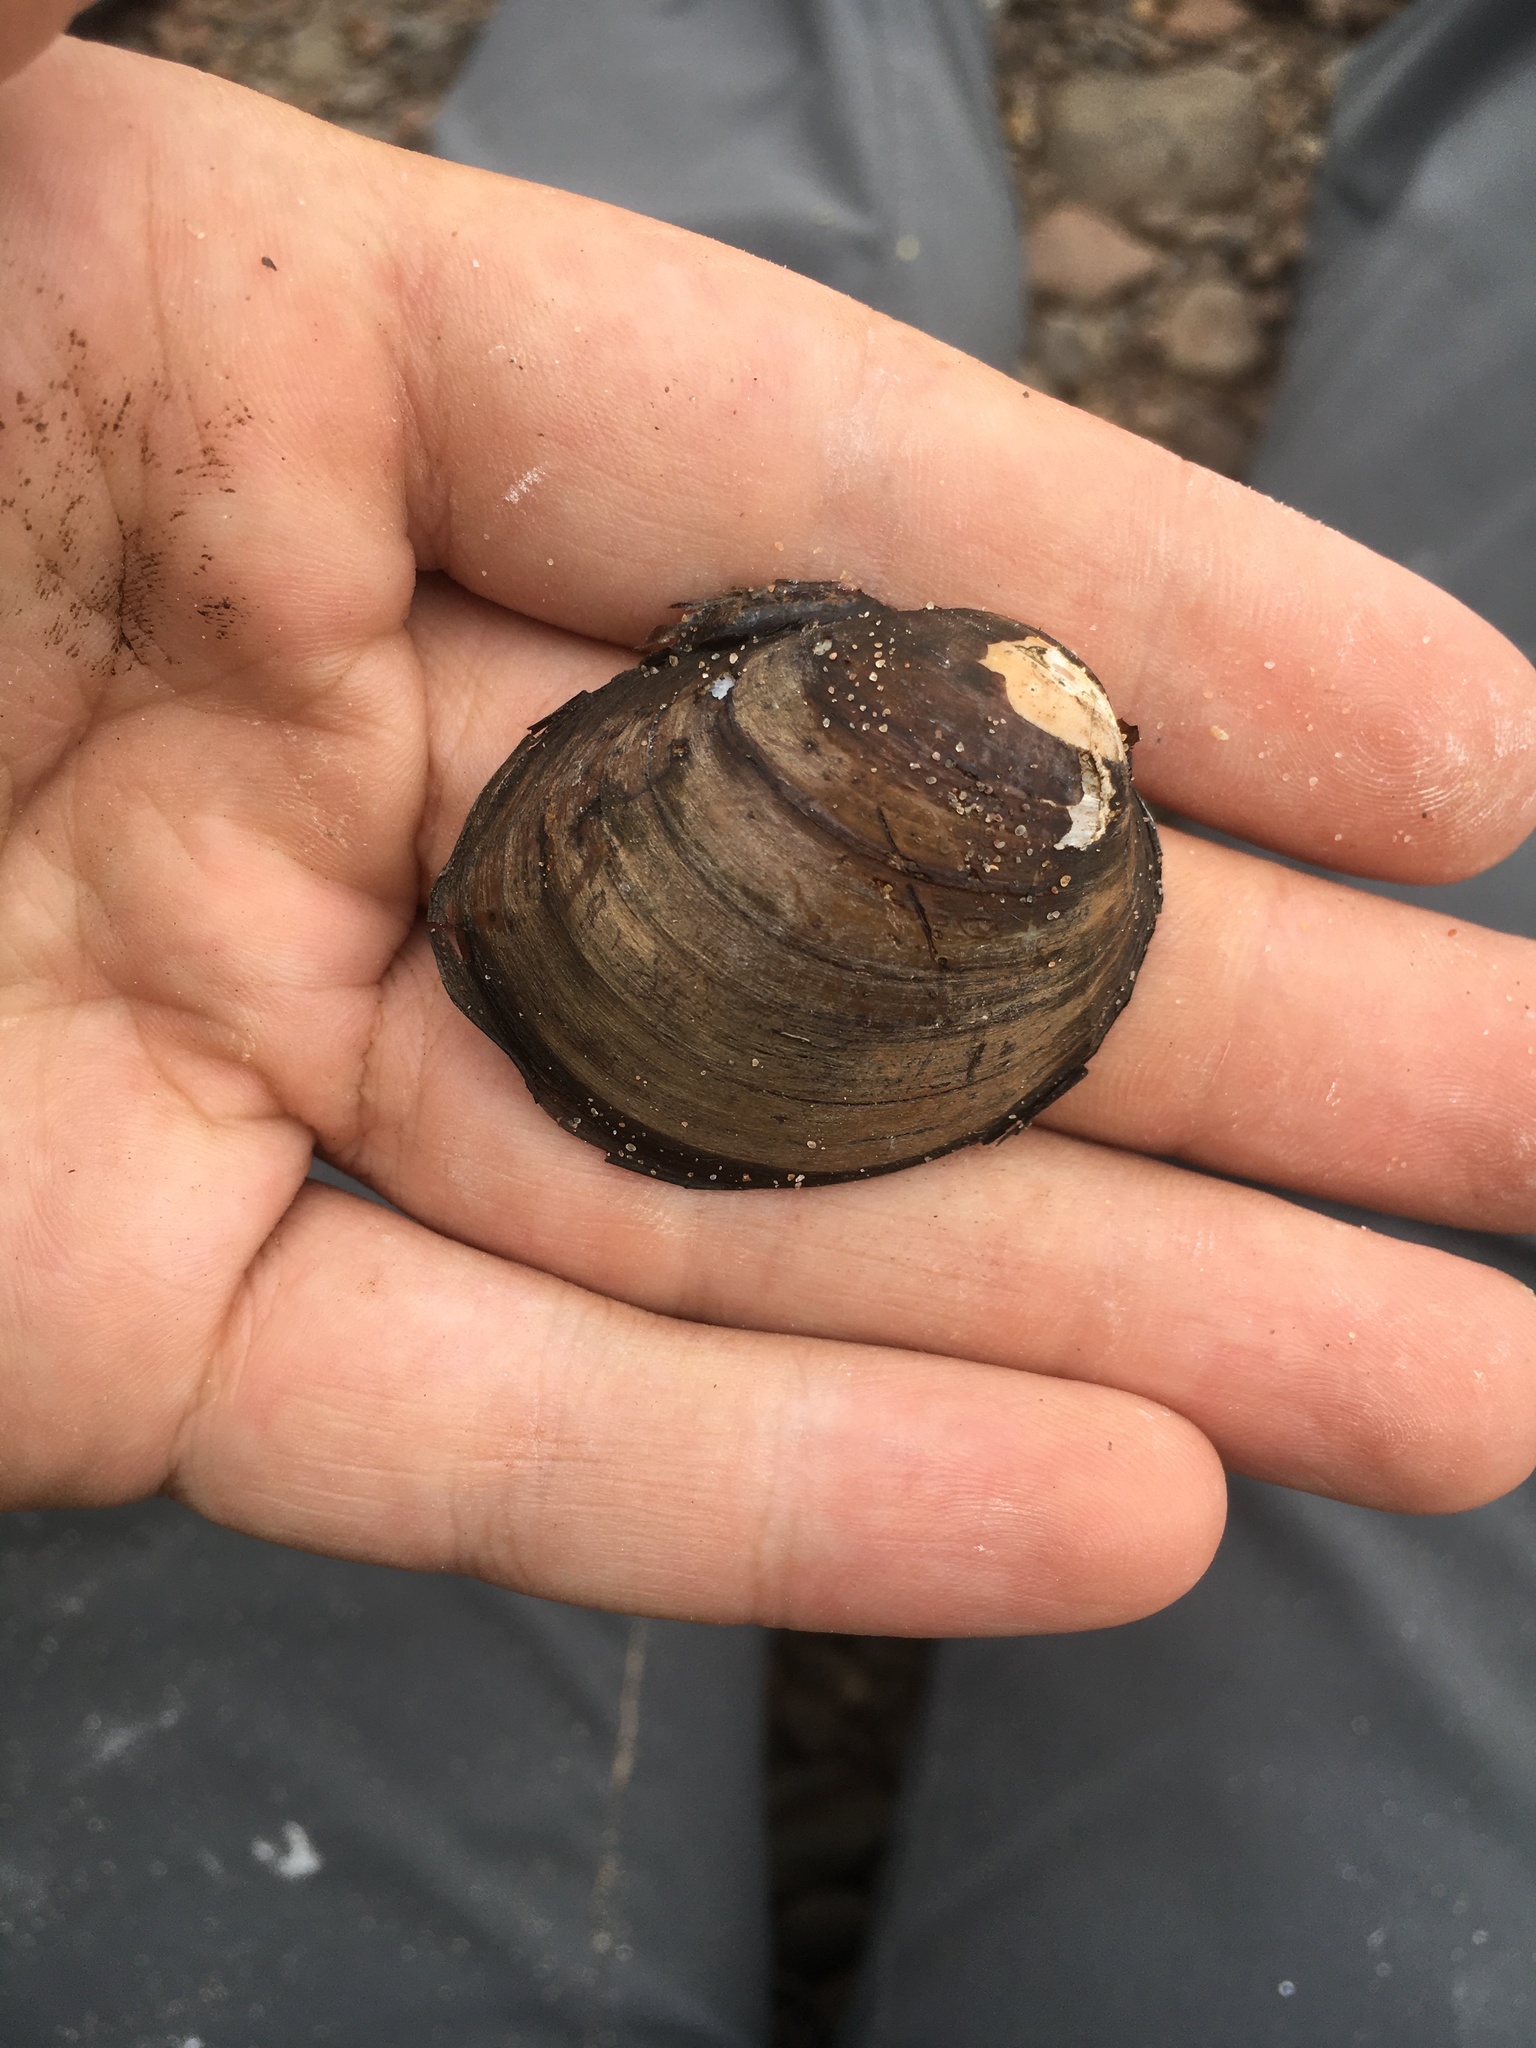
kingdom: Animalia
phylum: Mollusca
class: Bivalvia
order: Unionida
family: Unionidae
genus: Obovaria
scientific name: Obovaria olivaria
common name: Hickorynut
